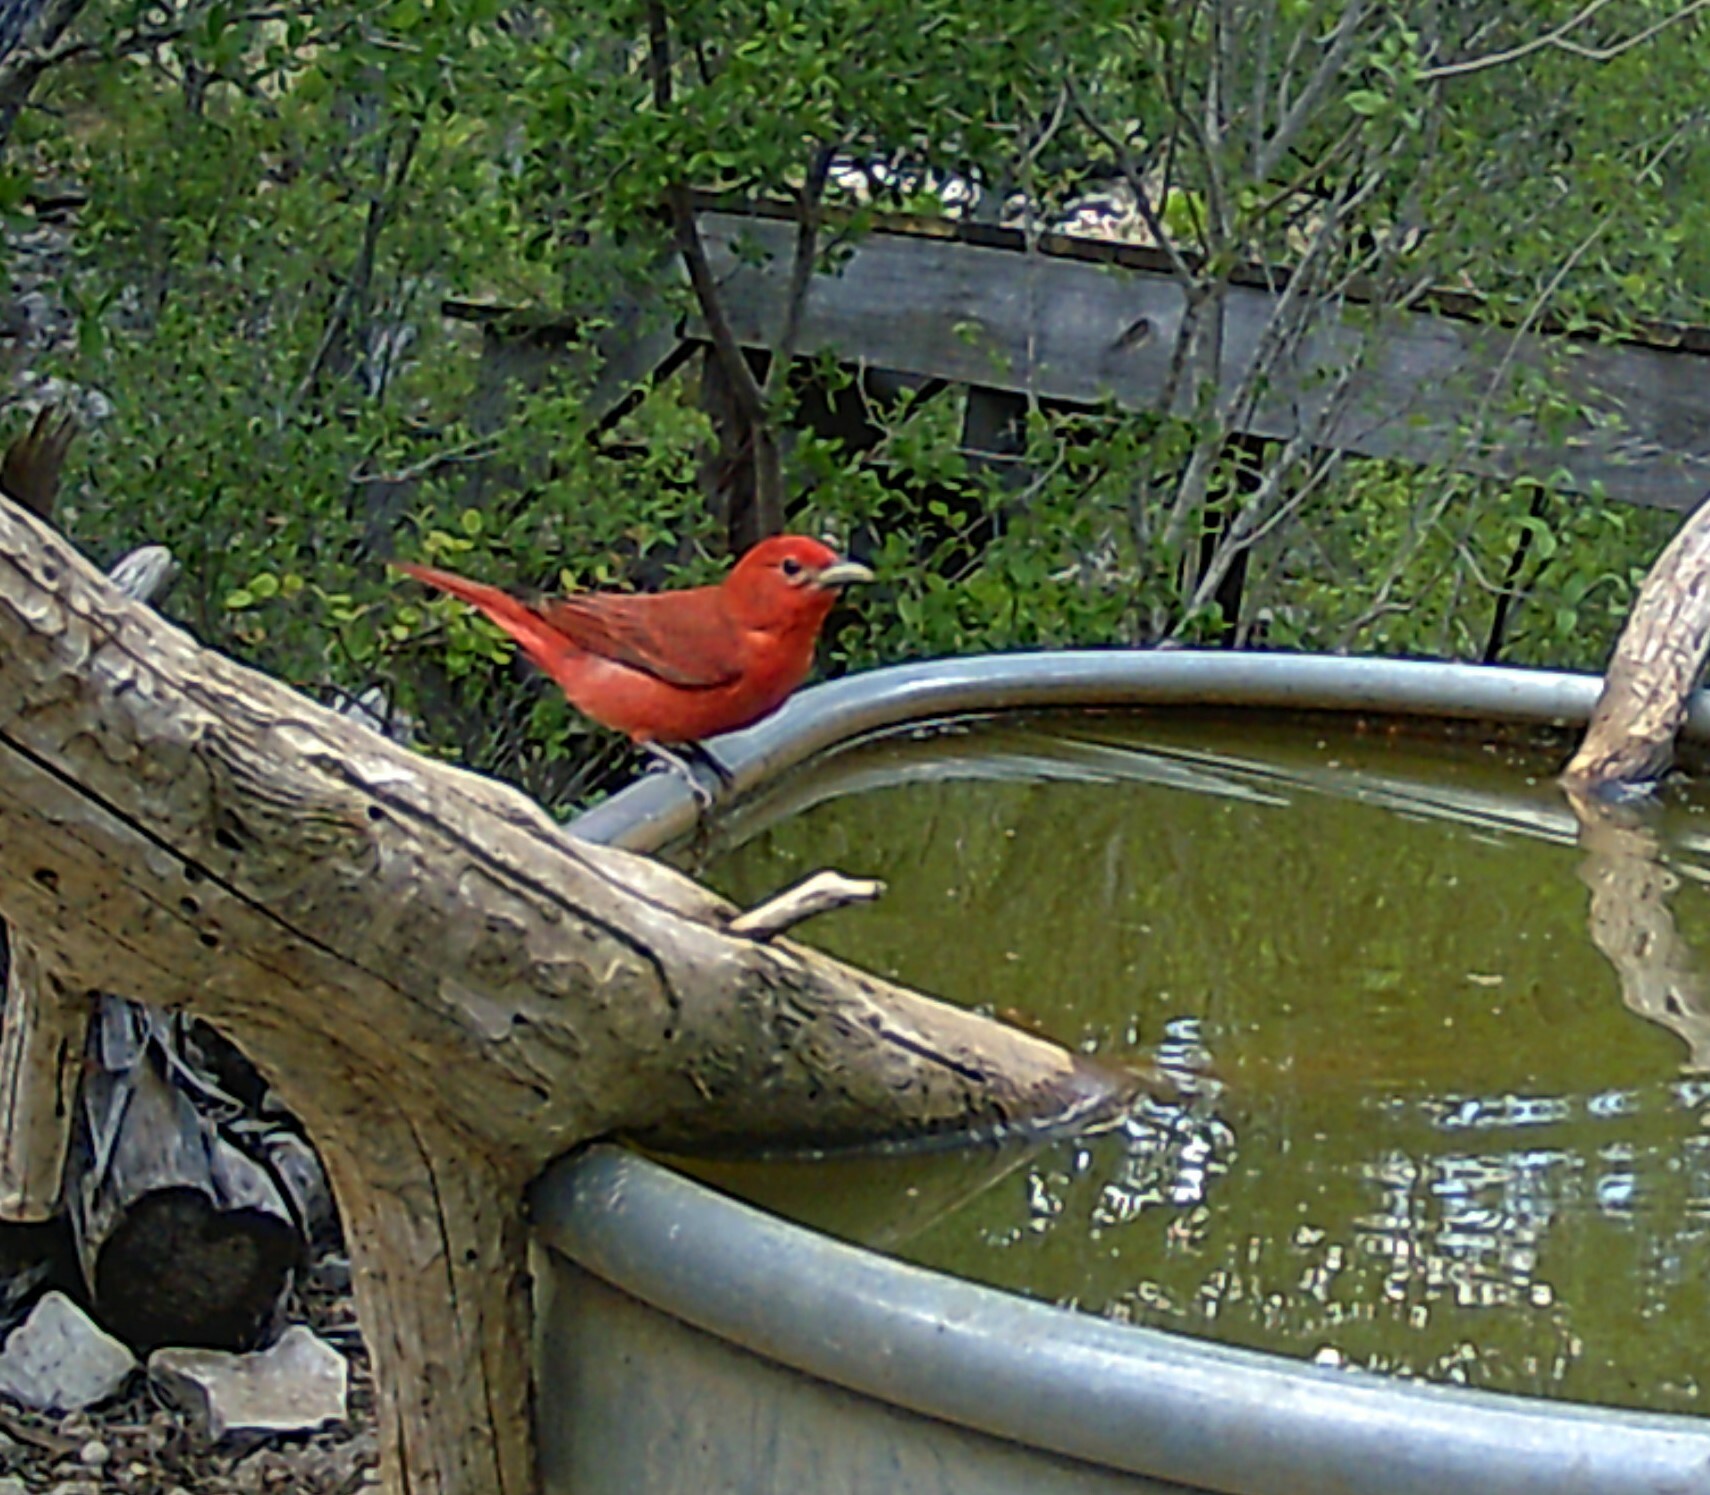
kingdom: Animalia
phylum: Chordata
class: Aves
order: Passeriformes
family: Cardinalidae
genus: Piranga
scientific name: Piranga rubra
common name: Summer tanager
